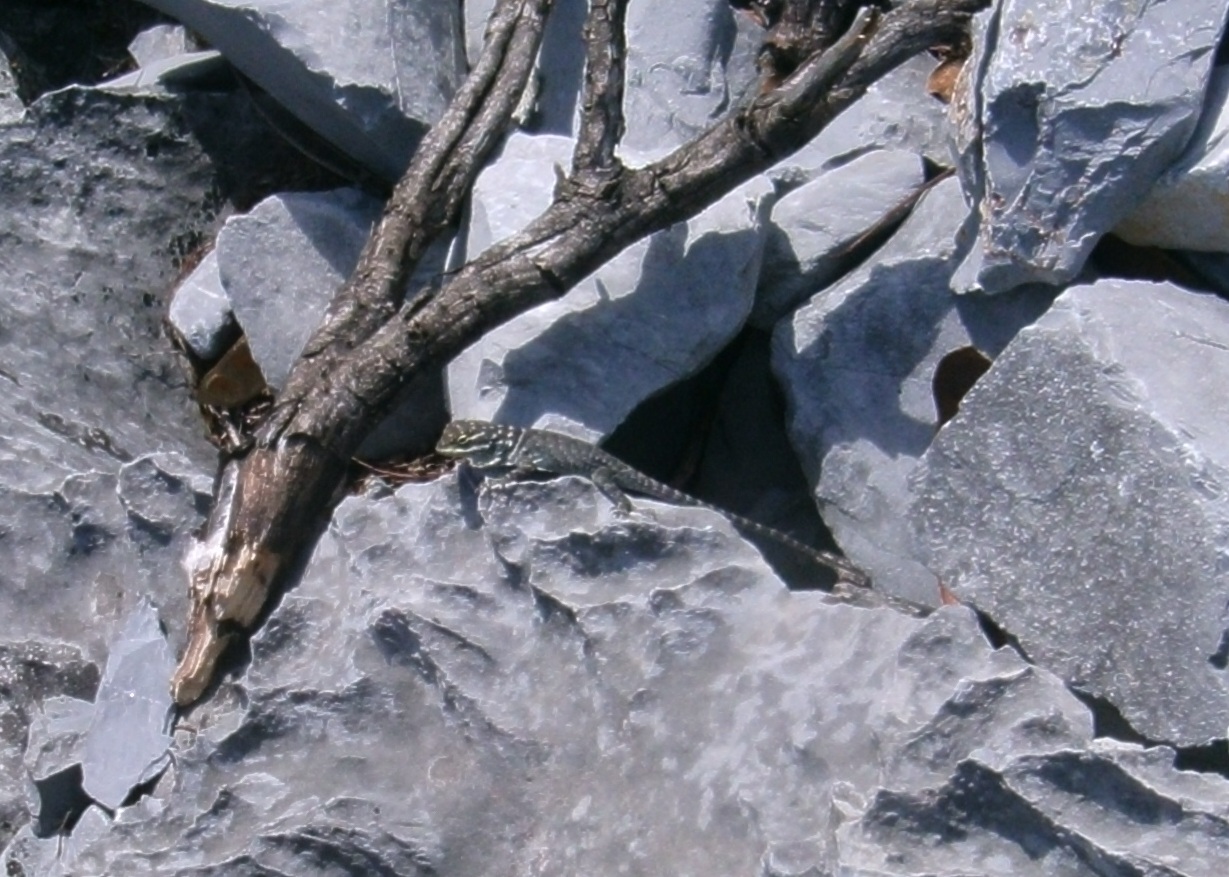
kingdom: Animalia
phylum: Chordata
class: Squamata
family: Phrynosomatidae
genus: Sceloporus
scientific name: Sceloporus minor
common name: Minor lizard
